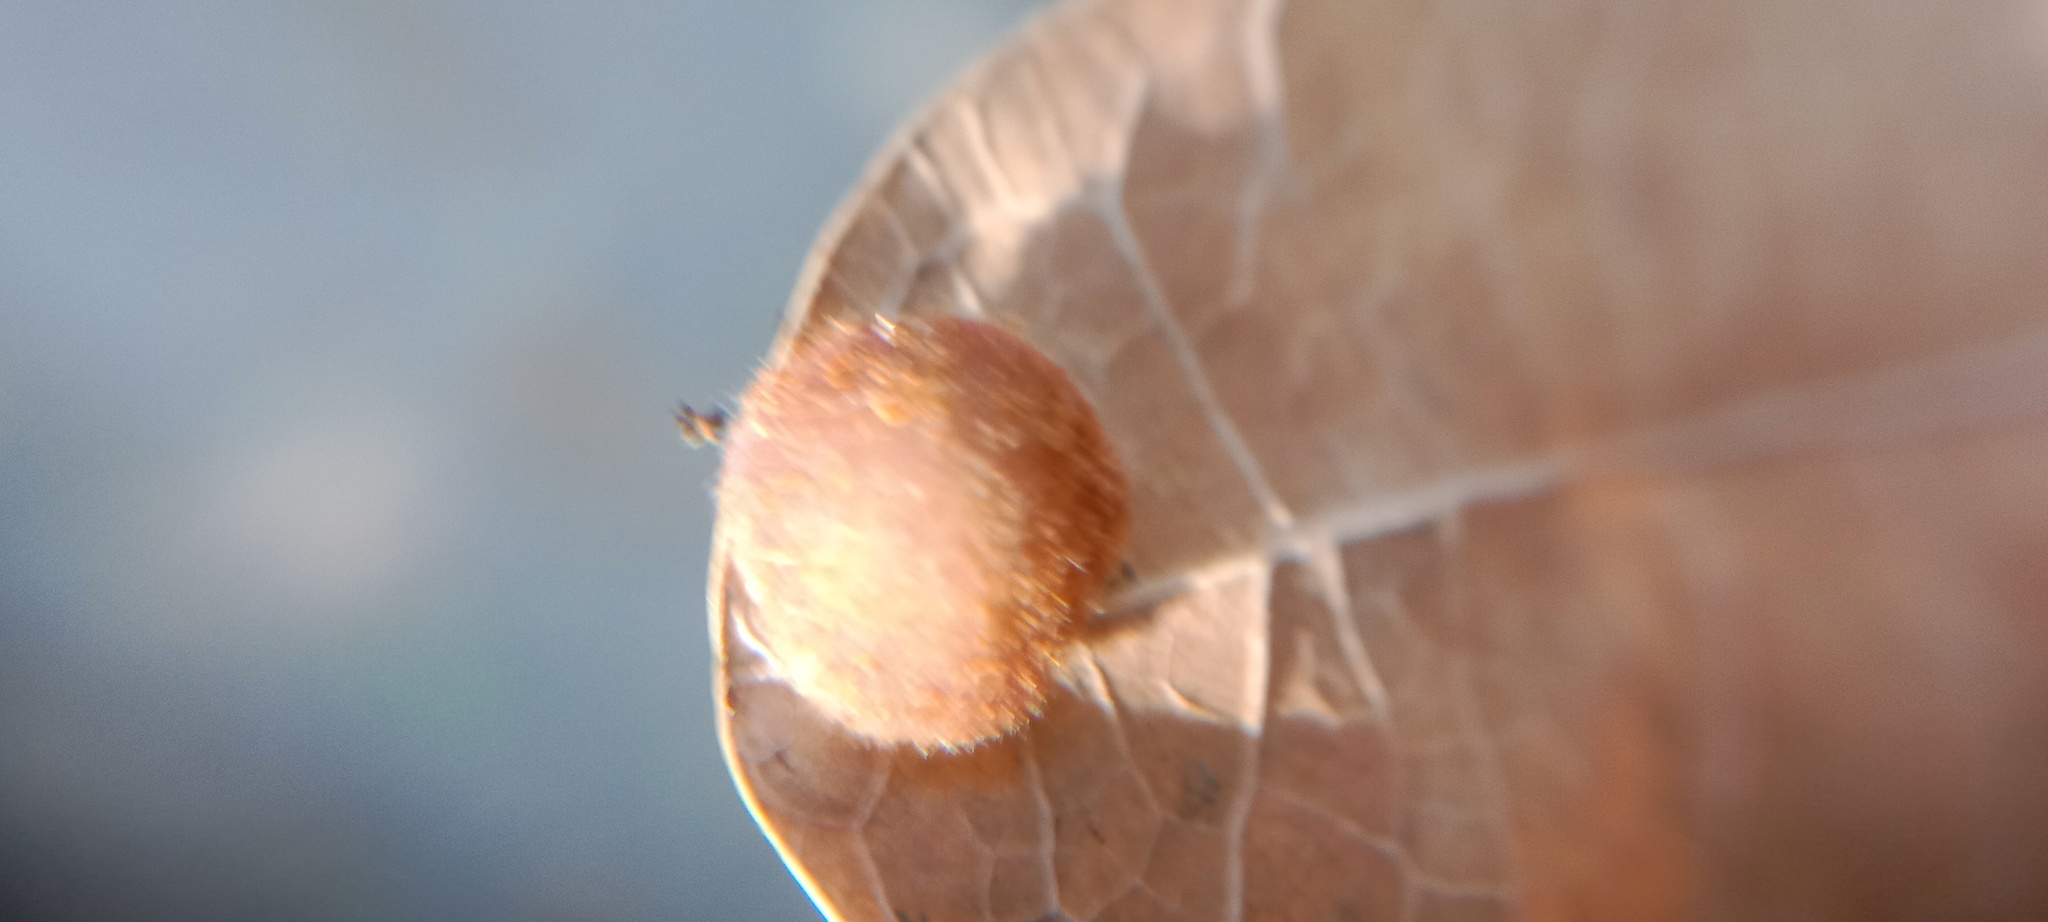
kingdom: Animalia
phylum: Arthropoda
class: Insecta
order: Hymenoptera
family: Cynipidae
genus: Neuroterus
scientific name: Neuroterus quercusbaccarum
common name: Common spangle gall
